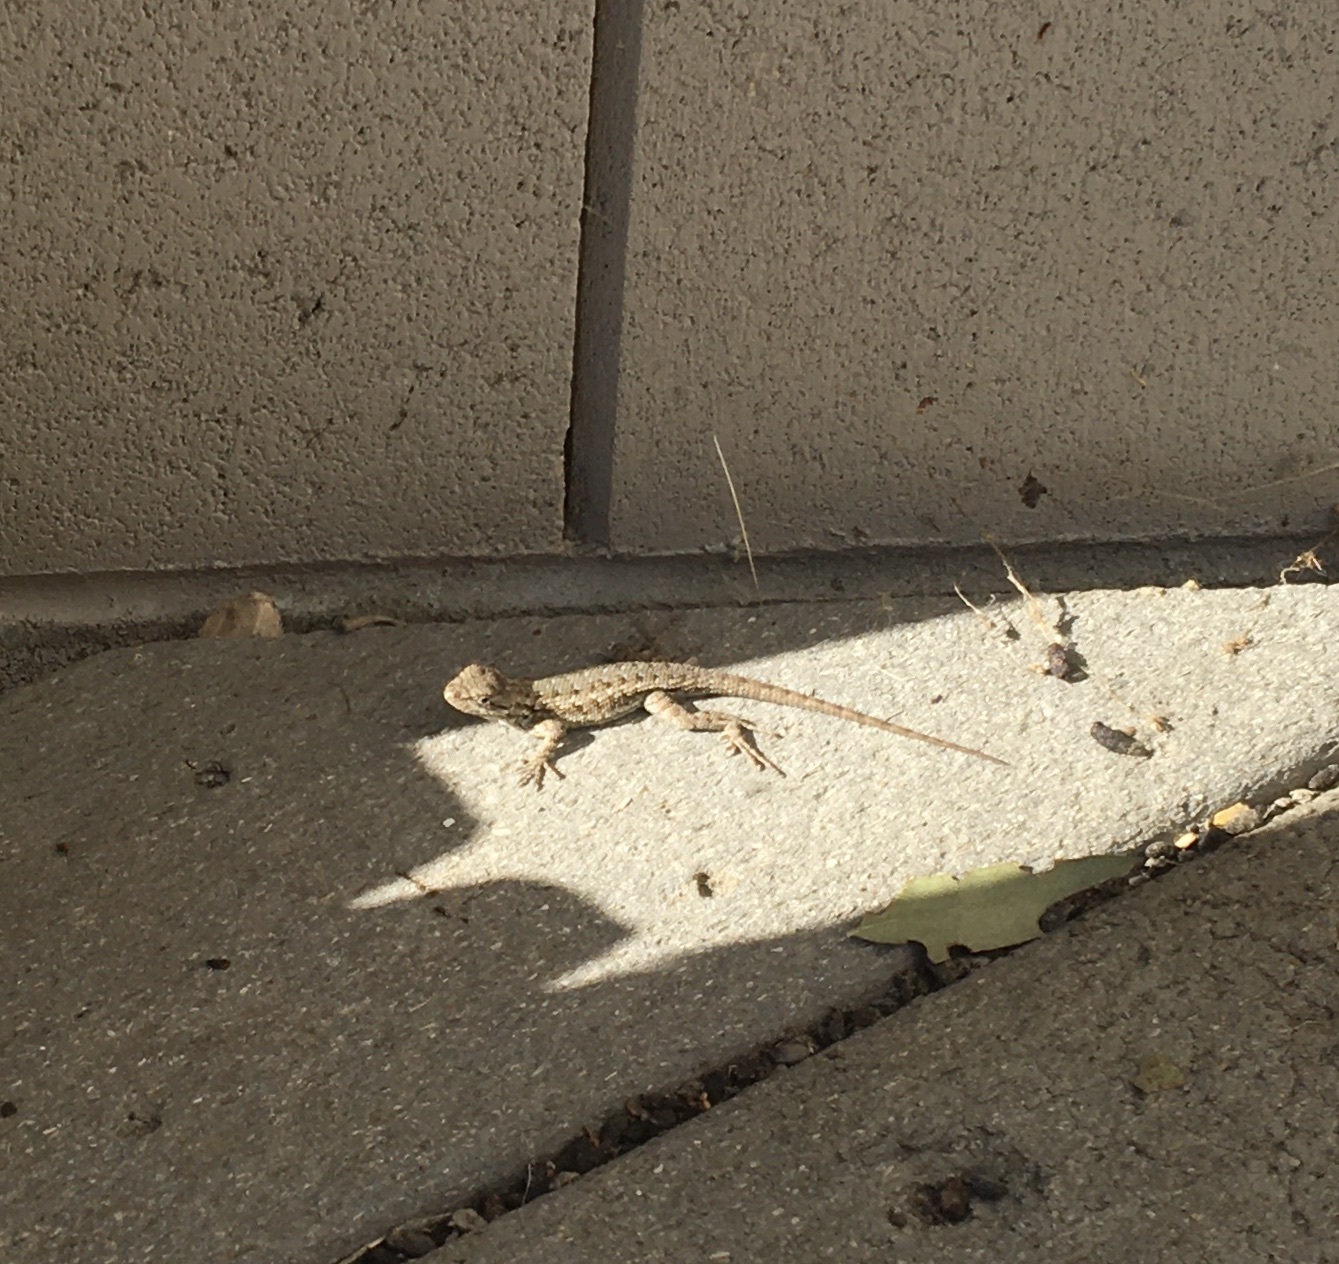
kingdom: Animalia
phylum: Chordata
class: Squamata
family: Phrynosomatidae
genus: Sceloporus
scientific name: Sceloporus occidentalis
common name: Western fence lizard
